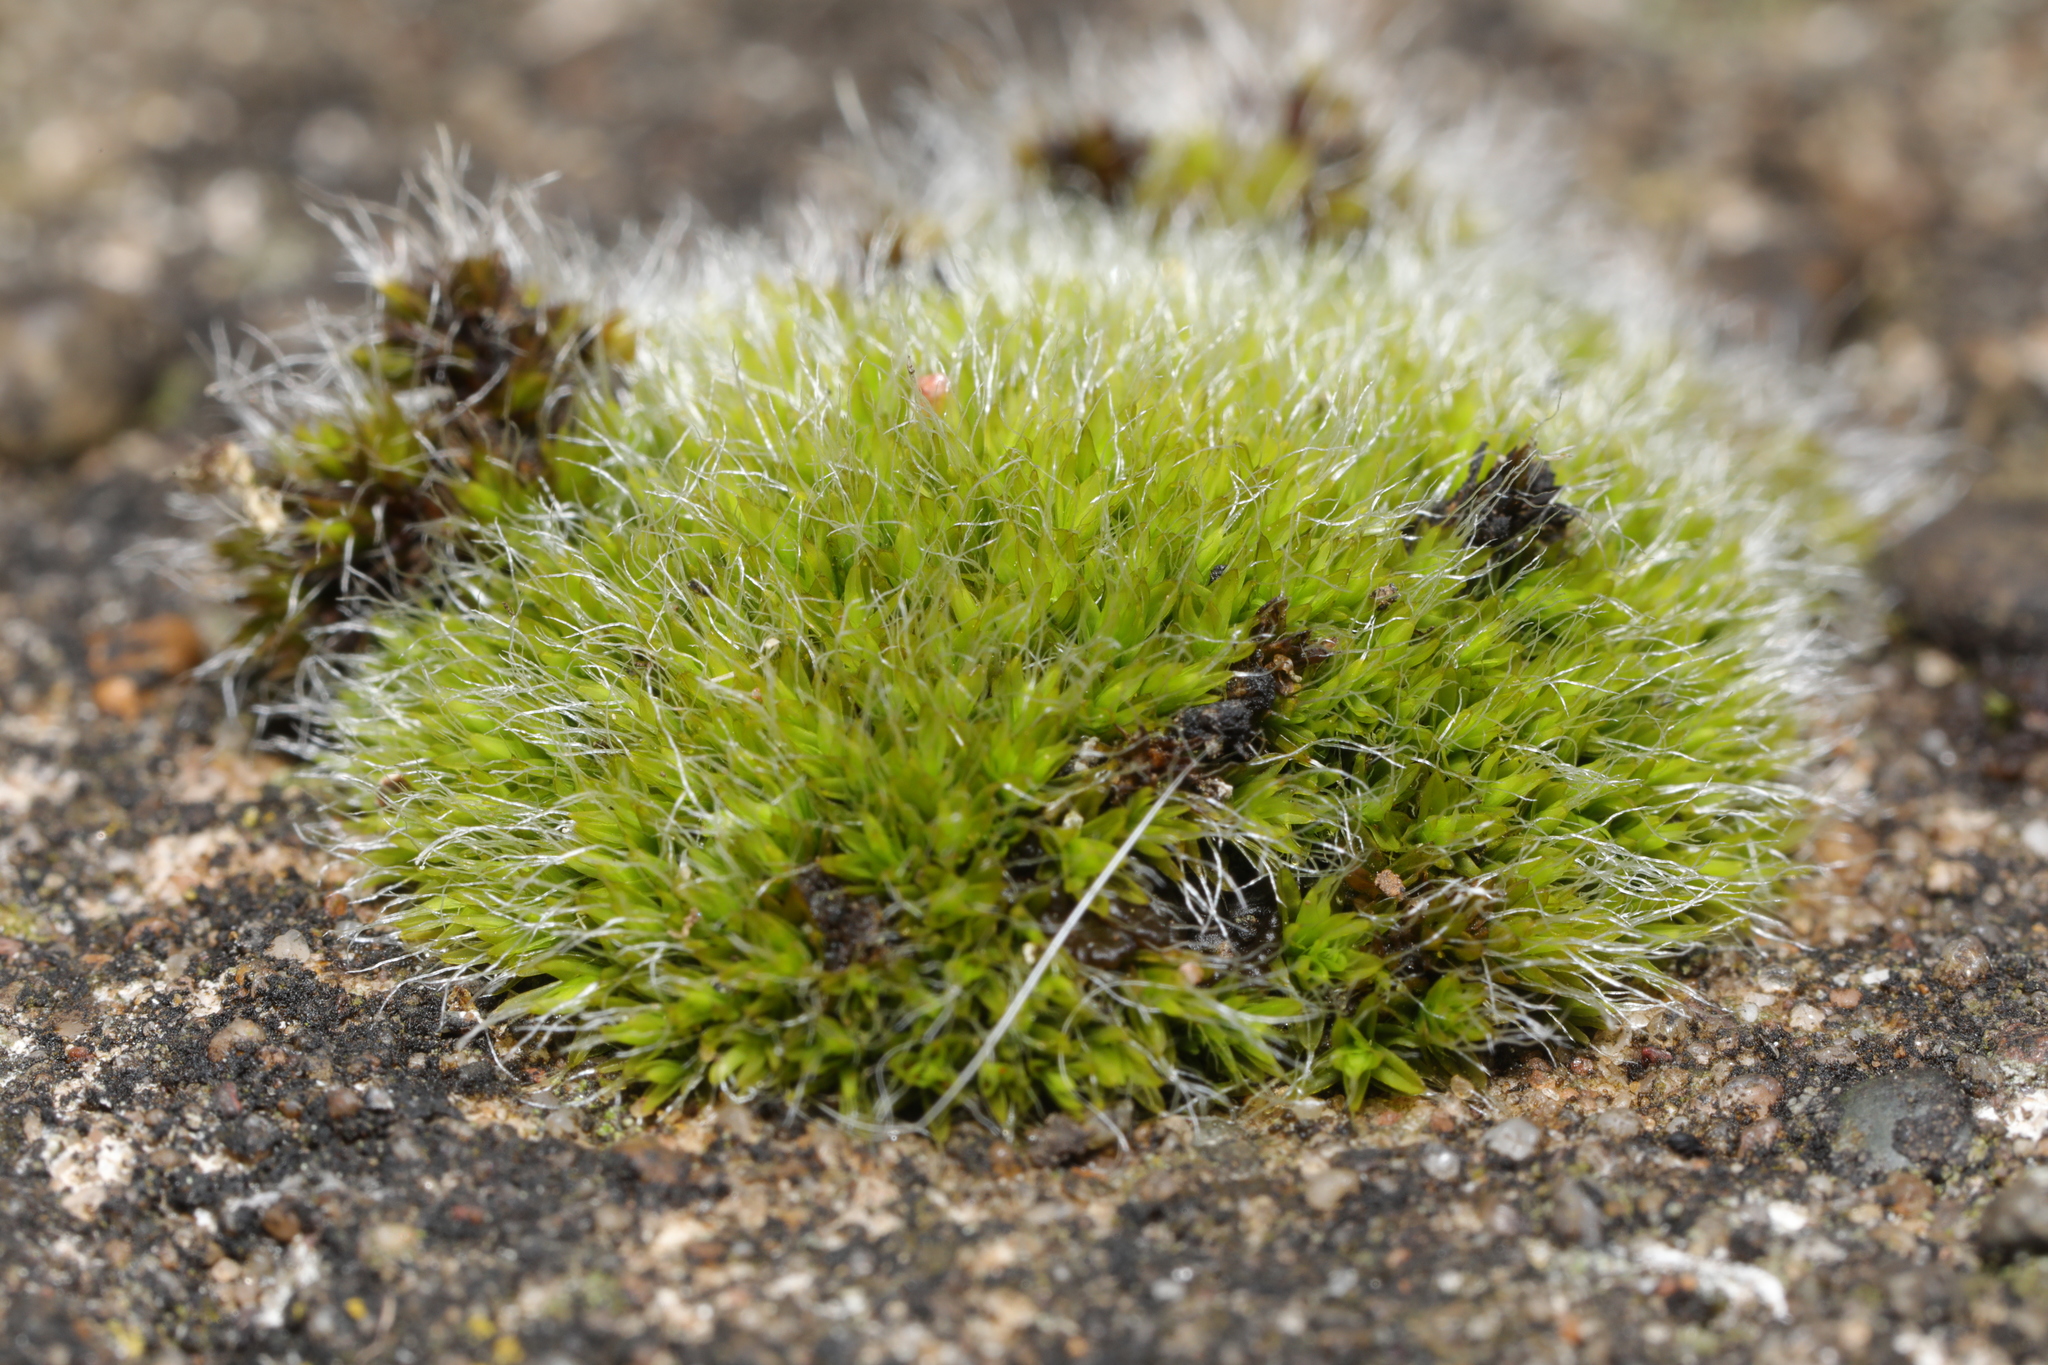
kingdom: Plantae
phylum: Bryophyta
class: Bryopsida
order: Grimmiales
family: Grimmiaceae
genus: Grimmia
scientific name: Grimmia pulvinata
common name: Grey-cushioned grimmia
